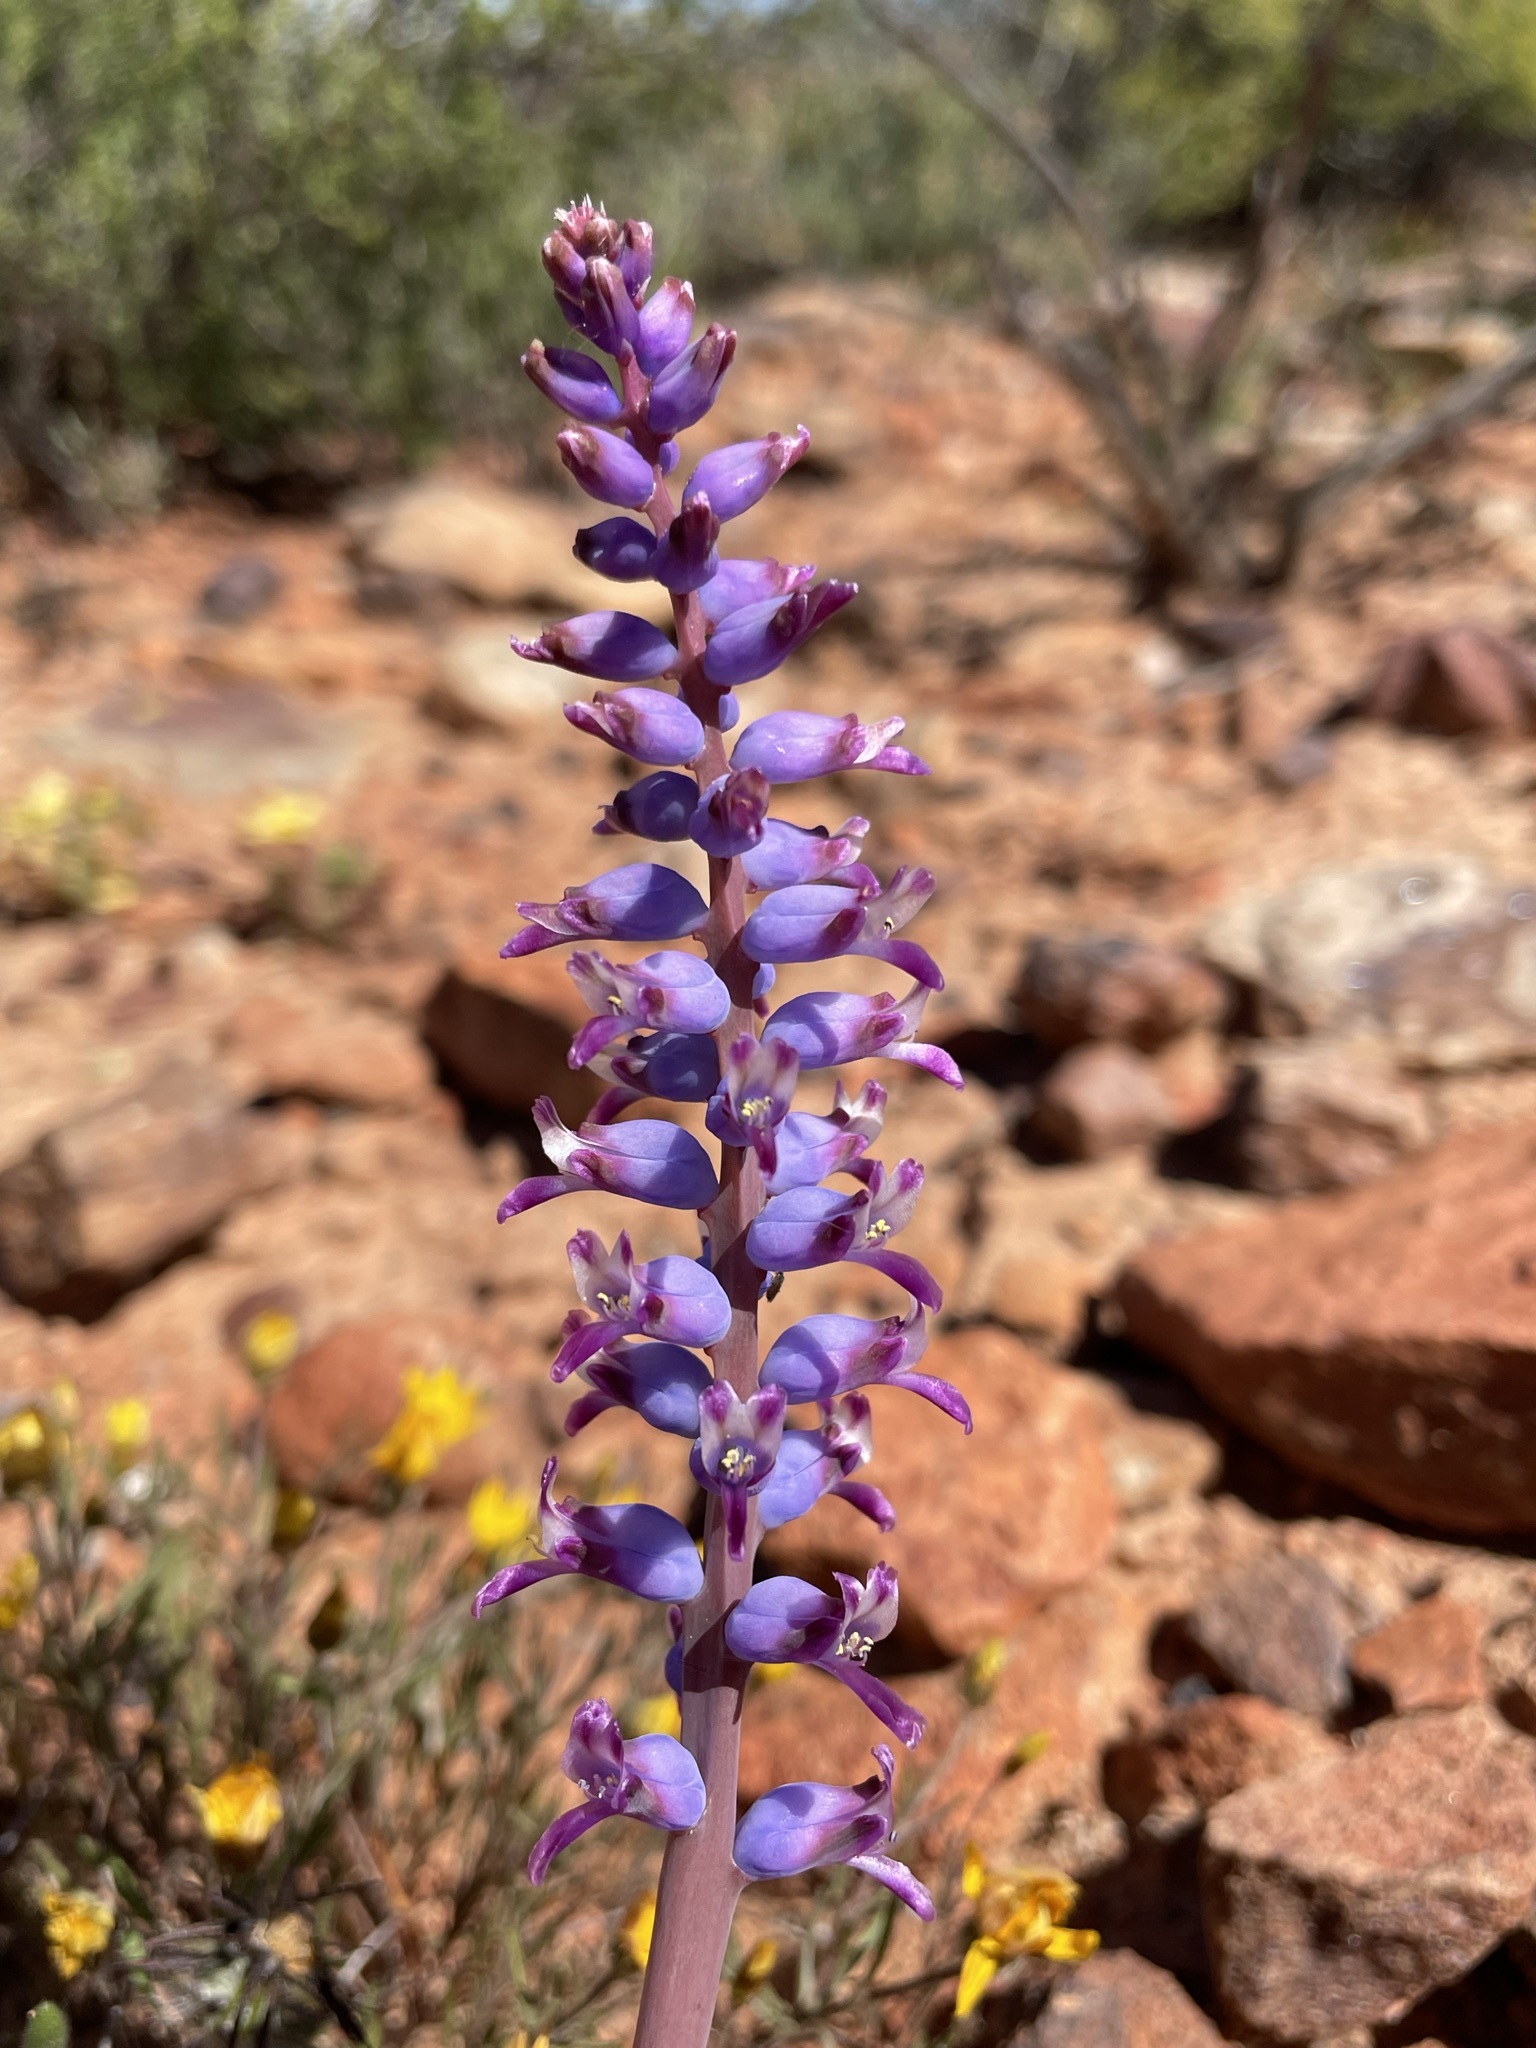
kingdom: Plantae
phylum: Tracheophyta
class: Liliopsida
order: Asparagales
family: Asparagaceae
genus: Lachenalia
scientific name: Lachenalia namaquensis
